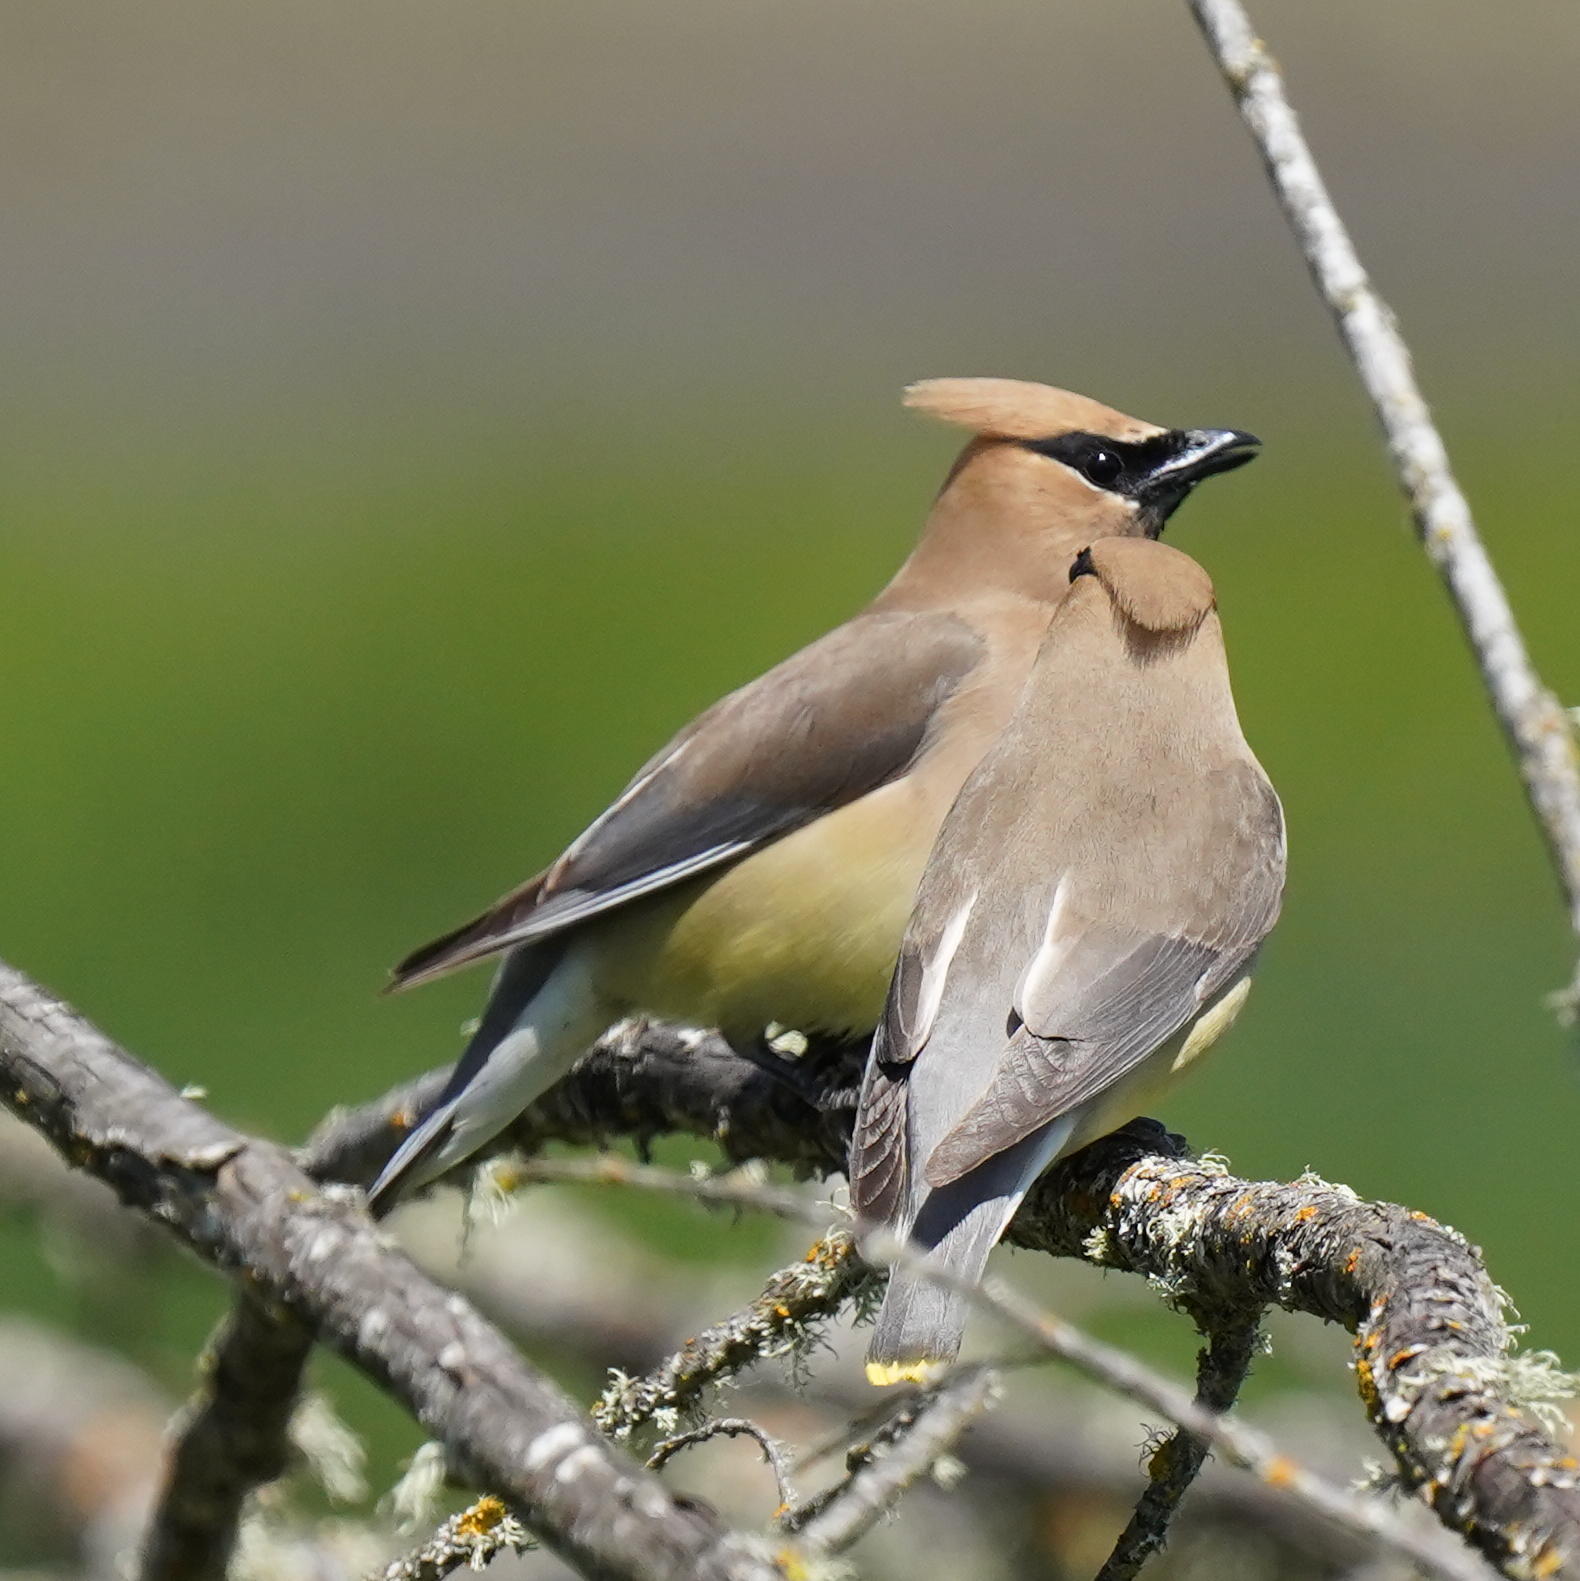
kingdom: Animalia
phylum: Chordata
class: Aves
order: Passeriformes
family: Bombycillidae
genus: Bombycilla
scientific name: Bombycilla cedrorum
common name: Cedar waxwing
